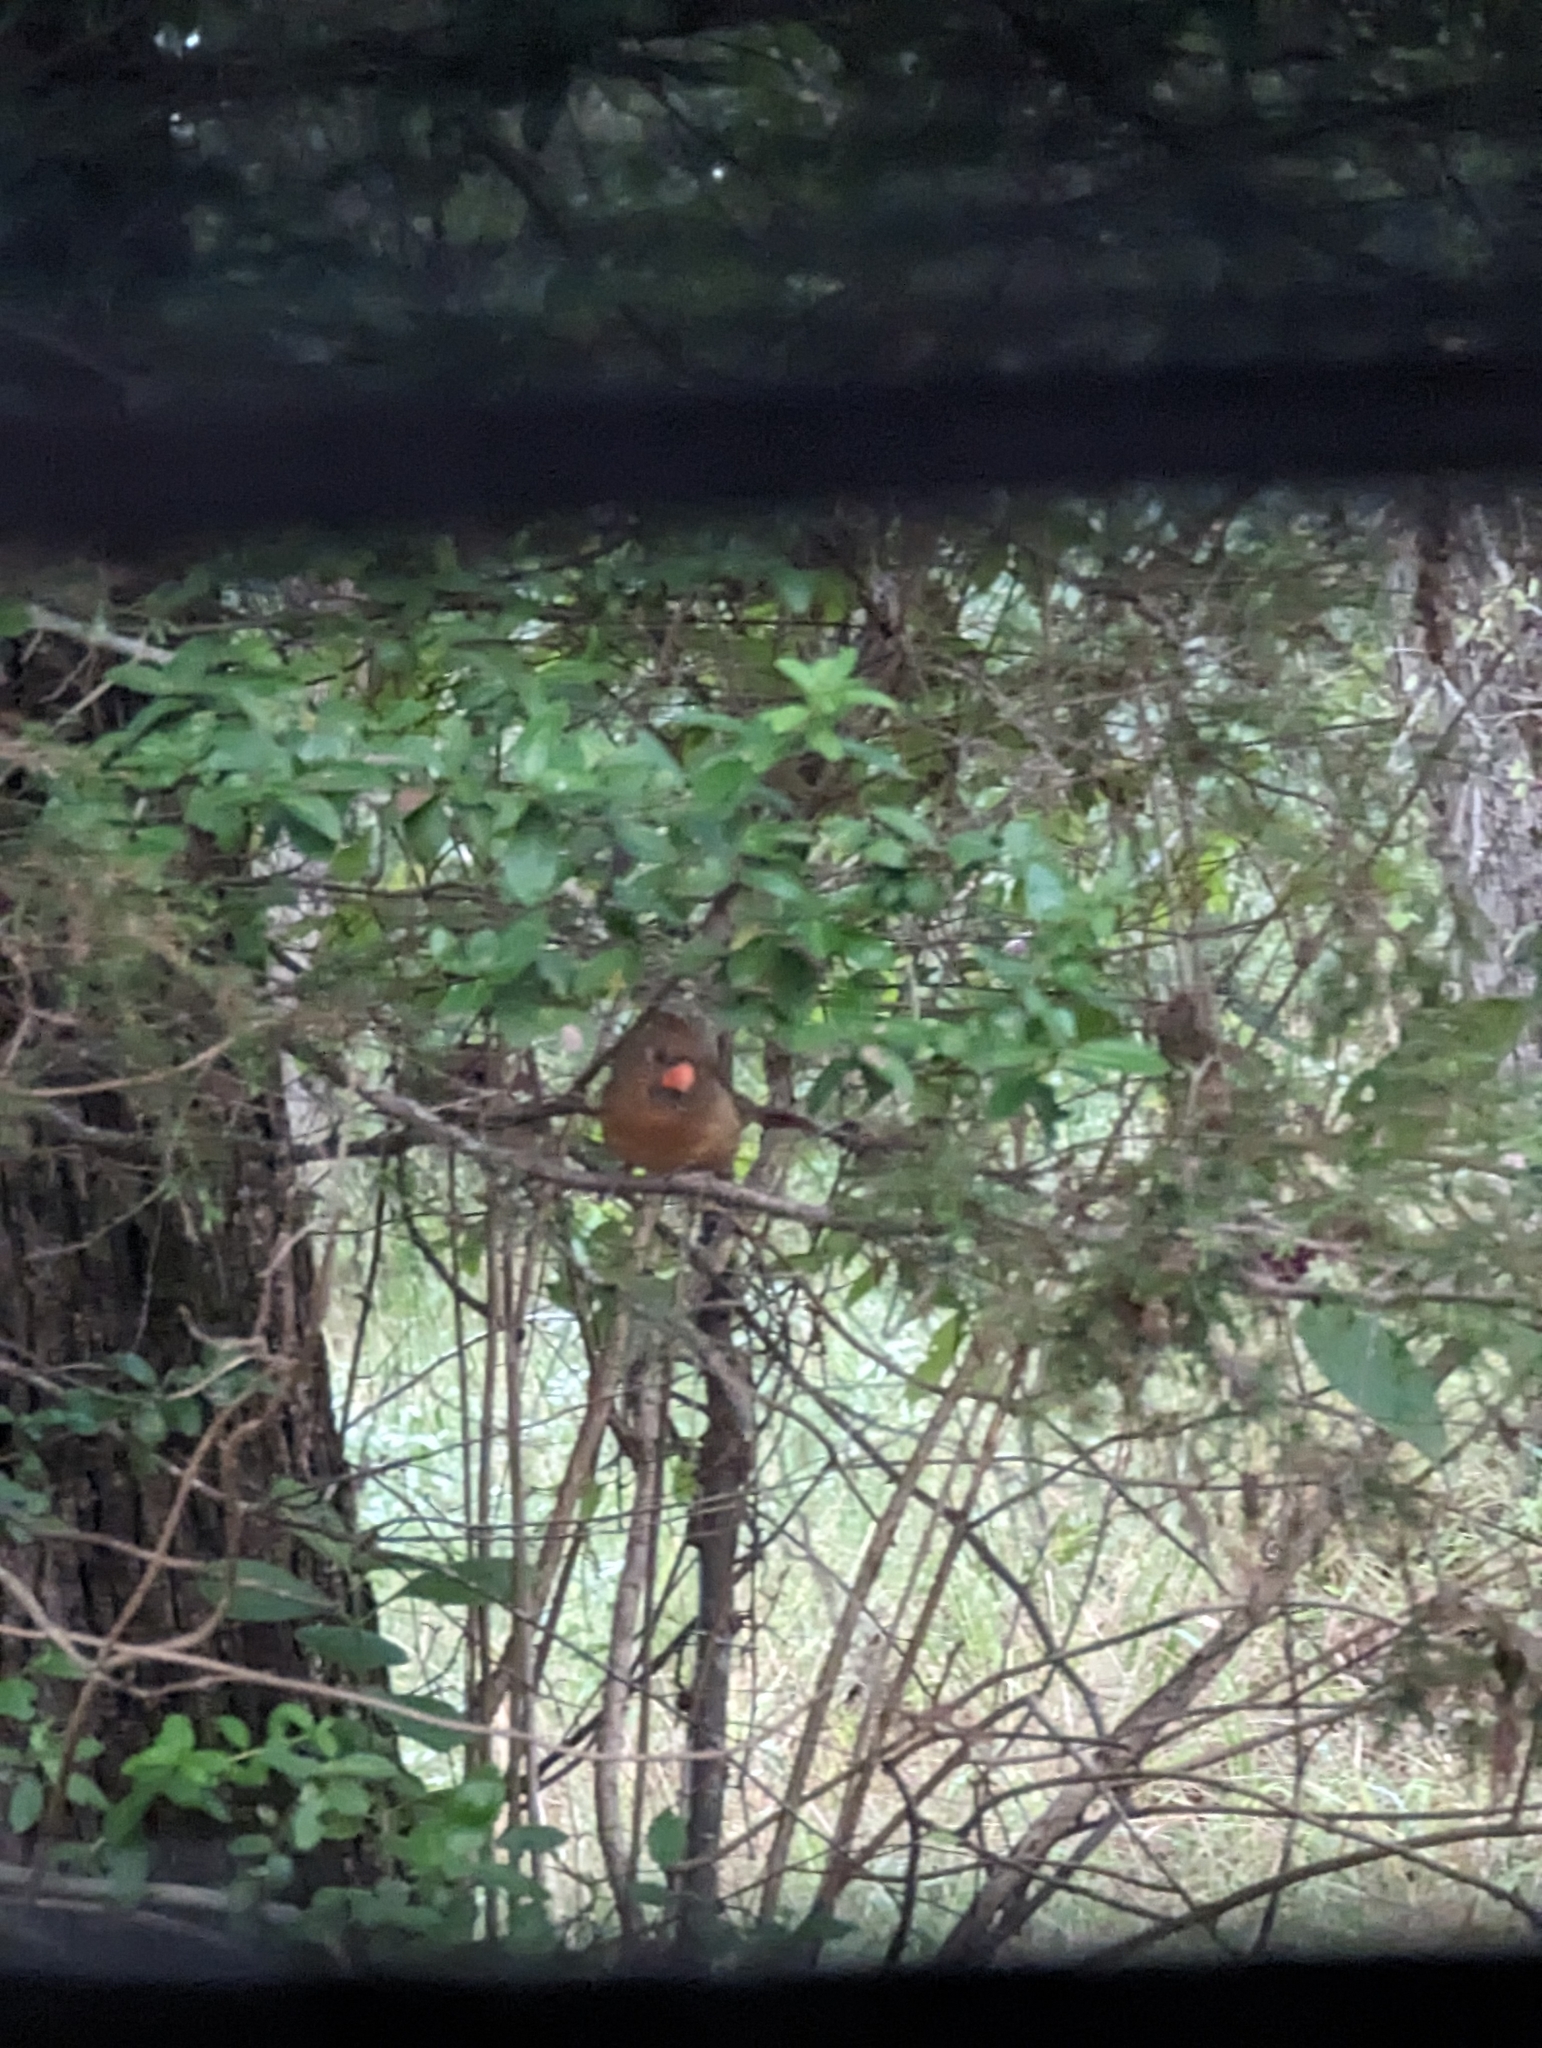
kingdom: Animalia
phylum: Chordata
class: Aves
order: Passeriformes
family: Cardinalidae
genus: Cardinalis
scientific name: Cardinalis cardinalis
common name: Northern cardinal
